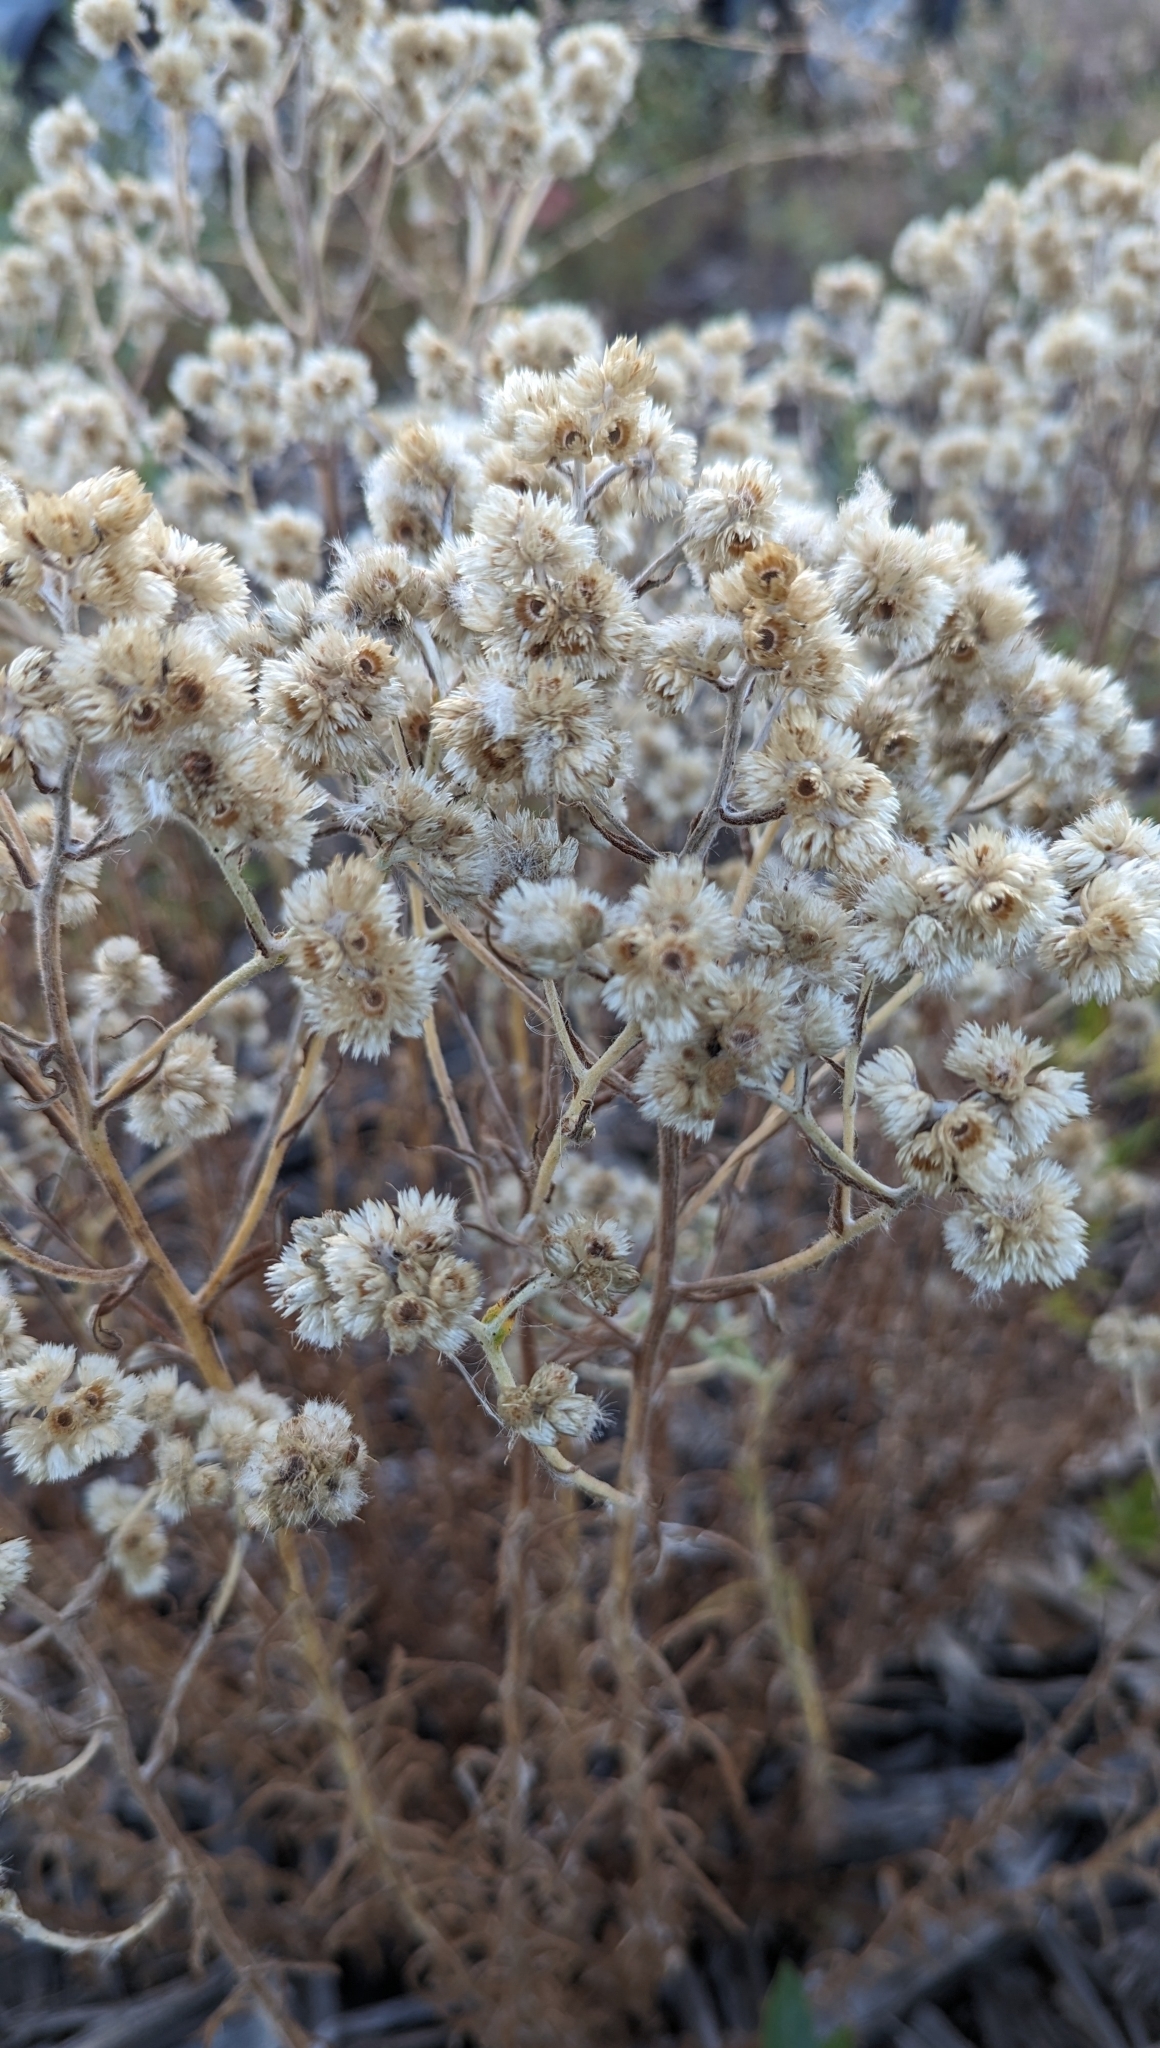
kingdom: Plantae
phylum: Tracheophyta
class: Magnoliopsida
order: Asterales
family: Asteraceae
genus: Anaphalis
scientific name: Anaphalis margaritacea
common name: Pearly everlasting
